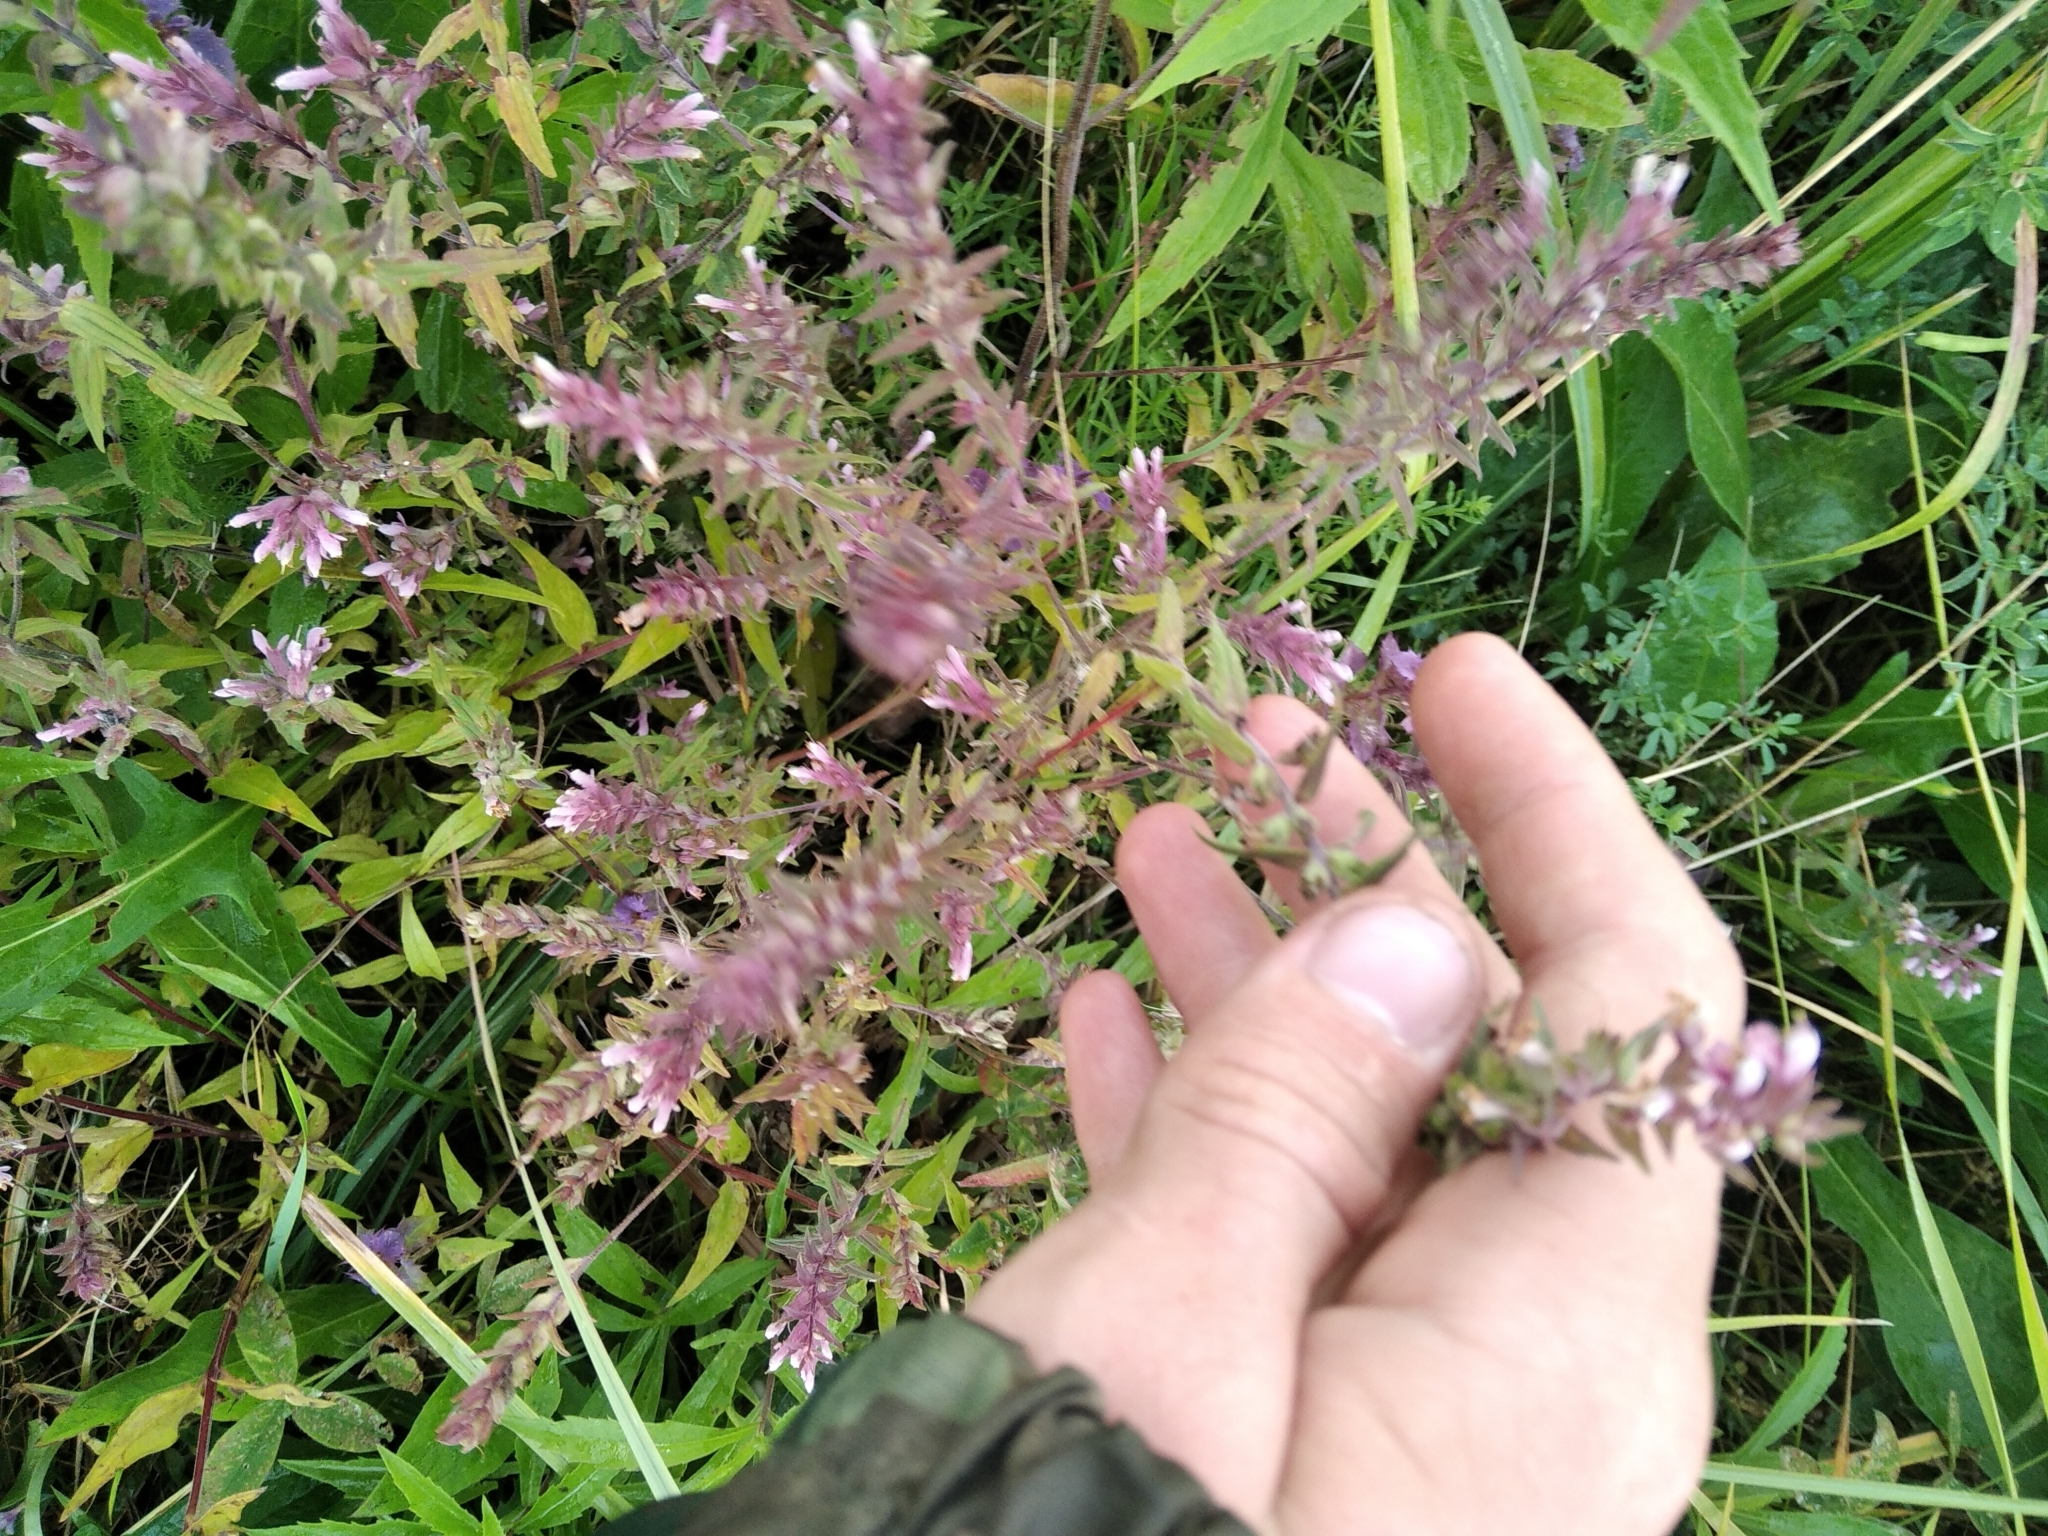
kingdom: Plantae
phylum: Tracheophyta
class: Magnoliopsida
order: Lamiales
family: Orobanchaceae
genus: Odontites
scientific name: Odontites vulgaris
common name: Broomrape
